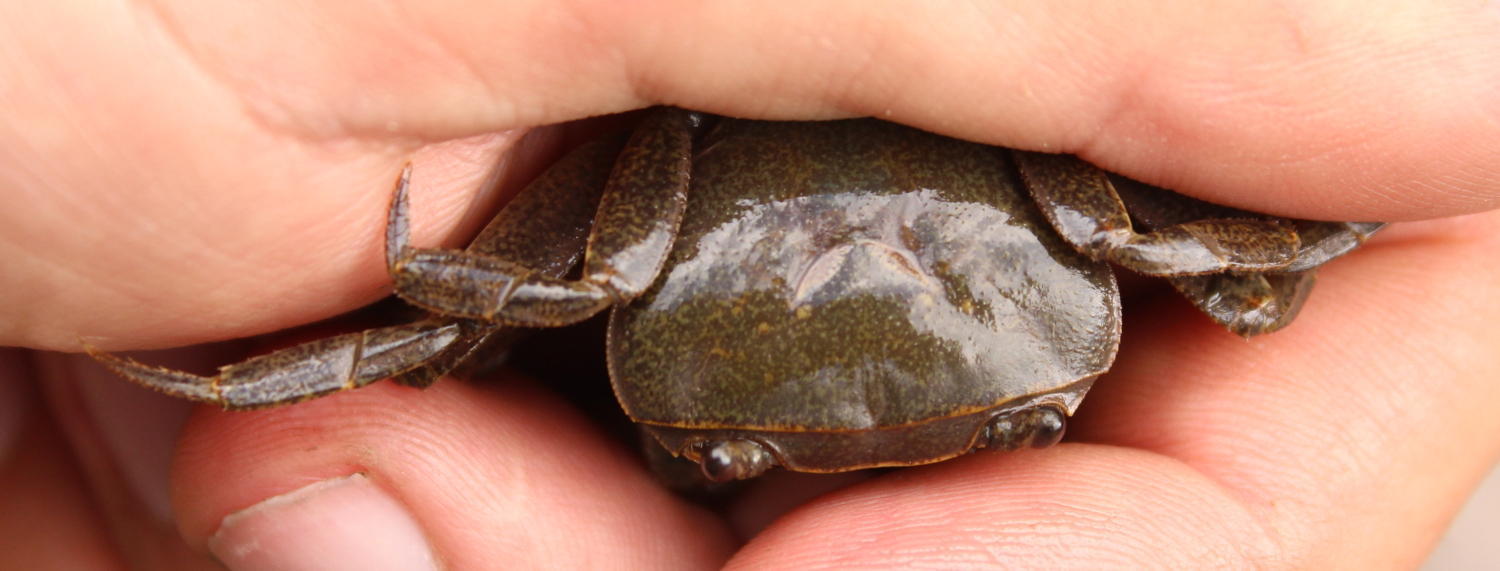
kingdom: Animalia
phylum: Arthropoda
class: Malacostraca
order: Decapoda
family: Potamonautidae
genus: Potamonautes
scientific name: Potamonautes danielsi
